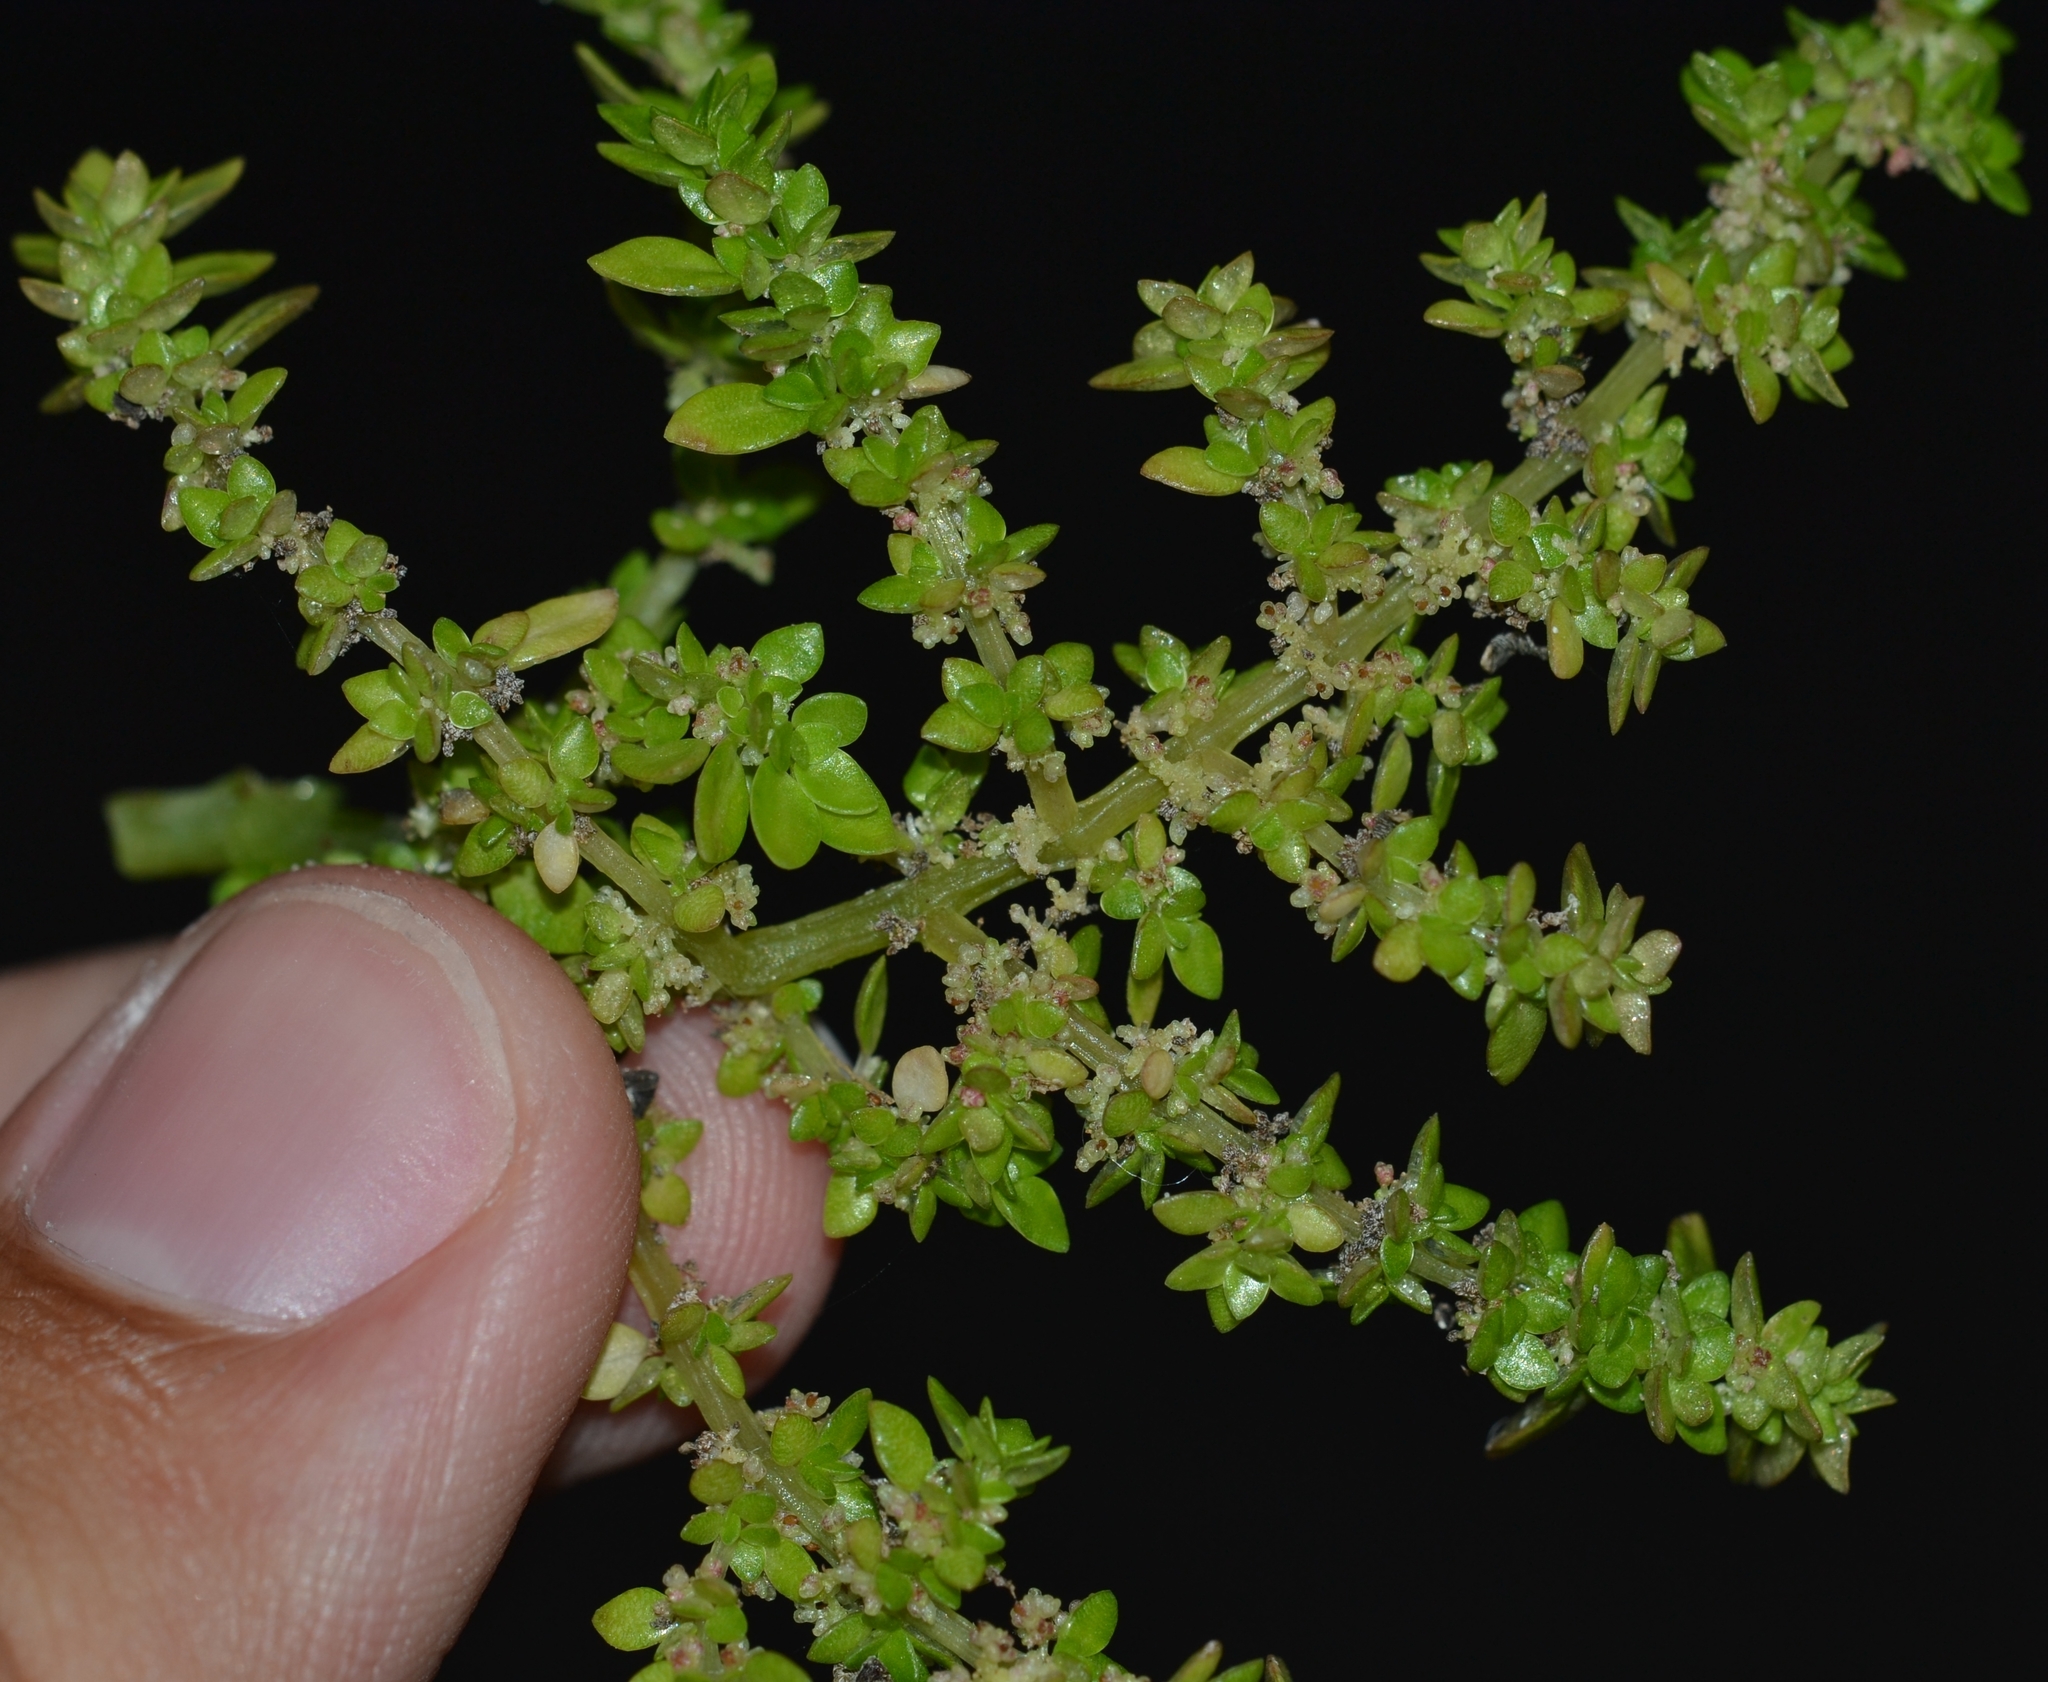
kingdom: Plantae
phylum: Tracheophyta
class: Magnoliopsida
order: Rosales
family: Urticaceae
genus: Pilea
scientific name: Pilea microphylla
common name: Artillery-plant
